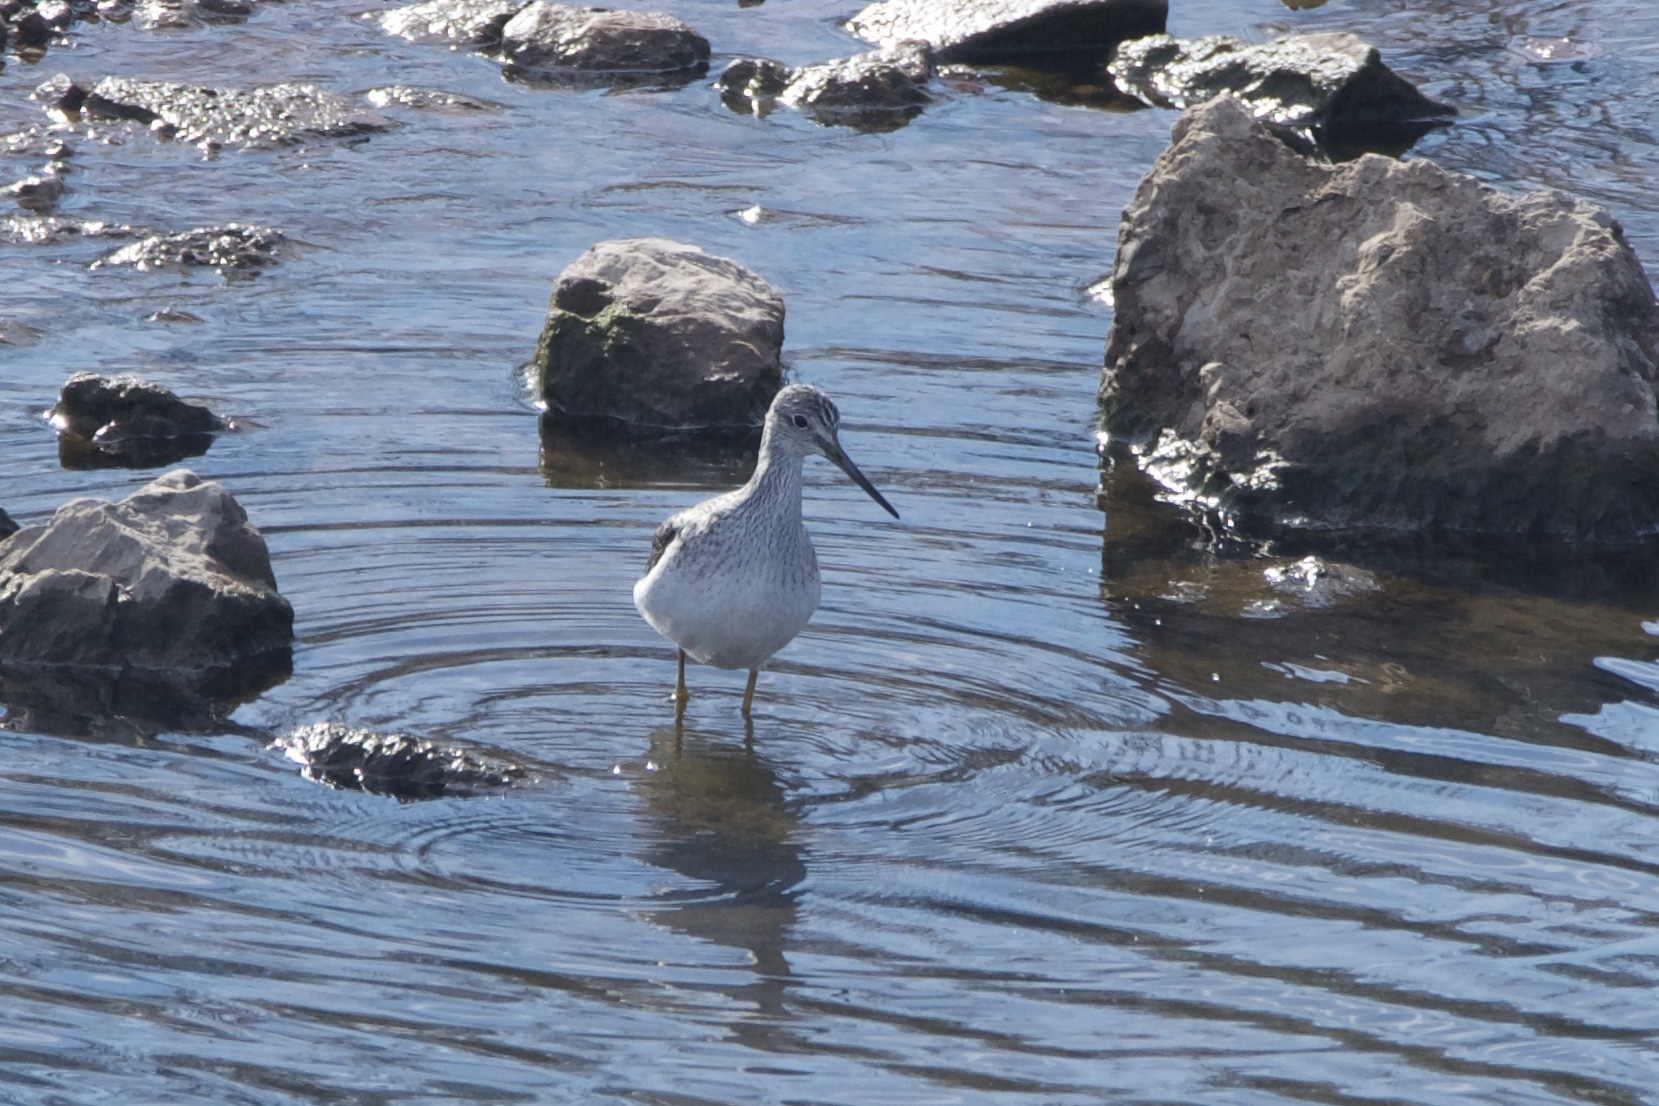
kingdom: Animalia
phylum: Chordata
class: Aves
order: Charadriiformes
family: Scolopacidae
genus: Tringa
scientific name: Tringa melanoleuca
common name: Greater yellowlegs
